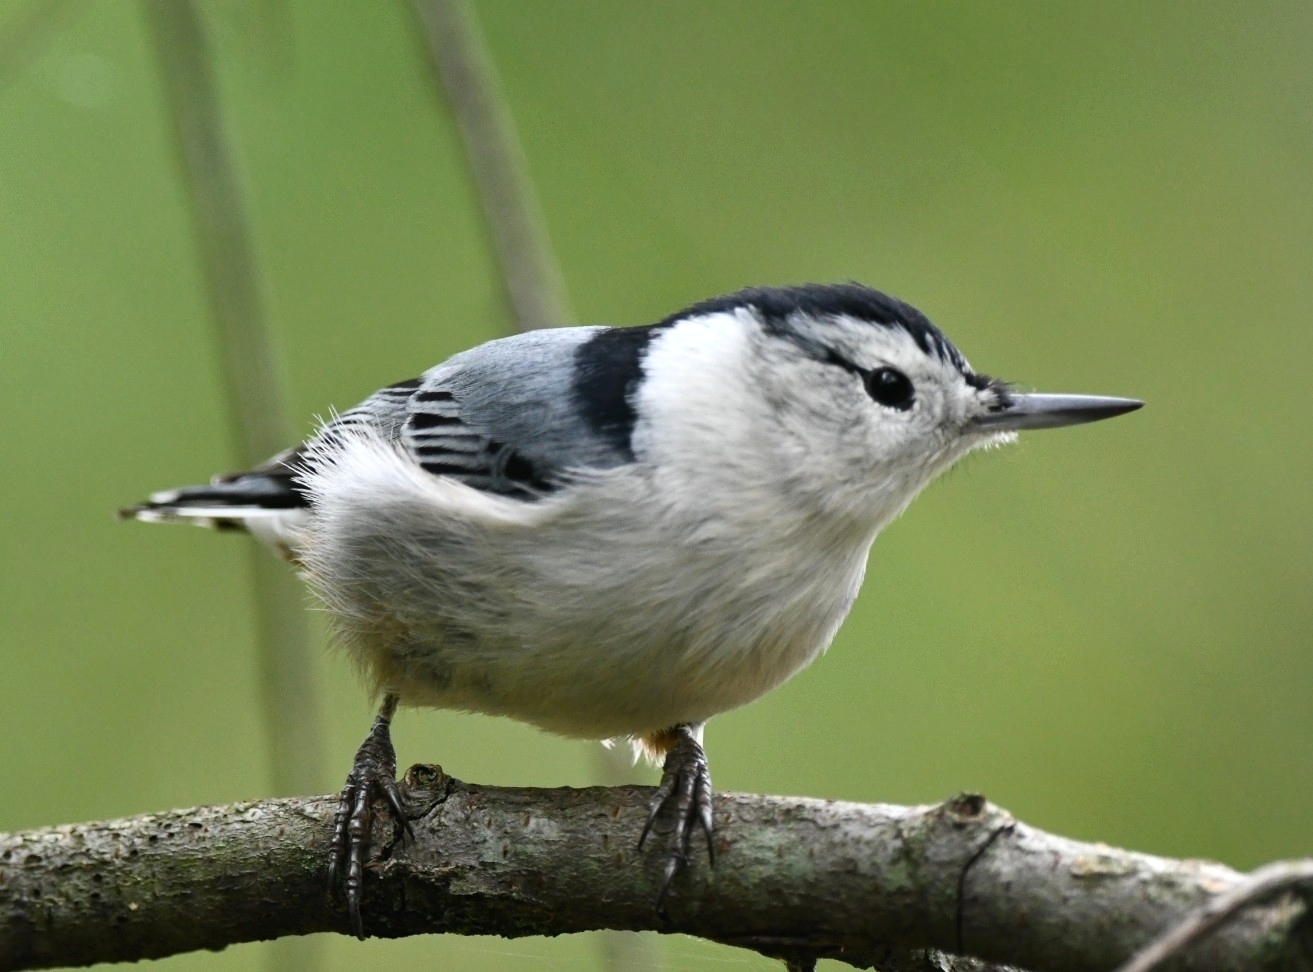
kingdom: Animalia
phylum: Chordata
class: Aves
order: Passeriformes
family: Sittidae
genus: Sitta
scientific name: Sitta carolinensis
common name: White-breasted nuthatch
